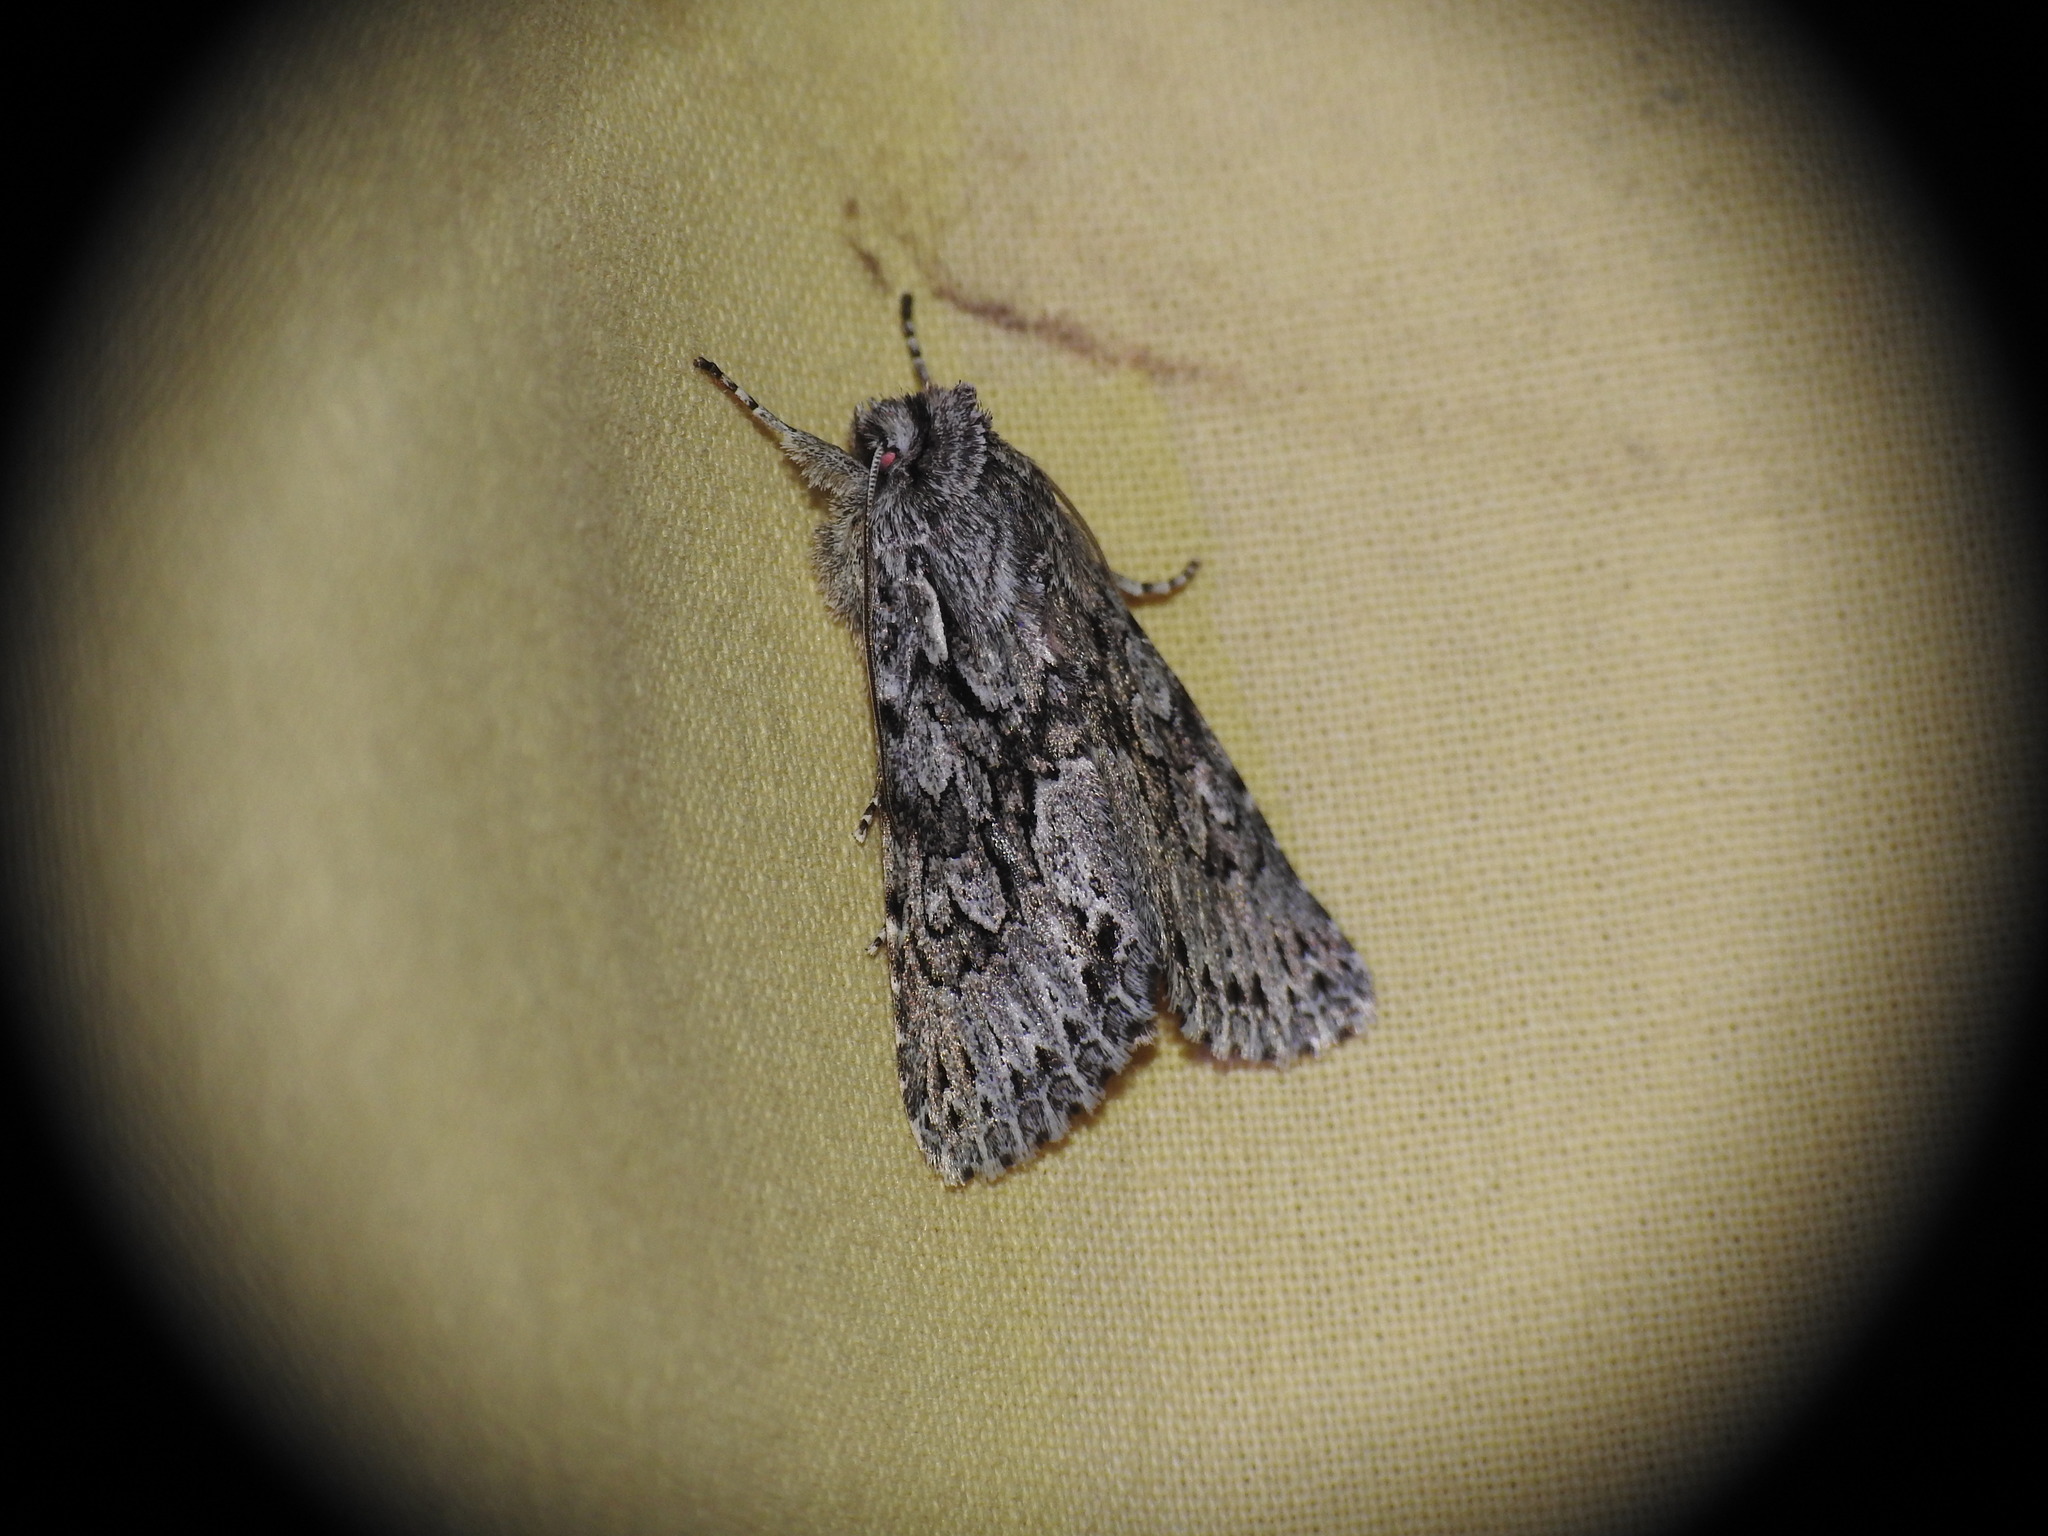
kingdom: Animalia
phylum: Arthropoda
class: Insecta
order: Lepidoptera
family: Noctuidae
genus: Xylocampa
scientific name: Xylocampa areola
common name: Early grey
